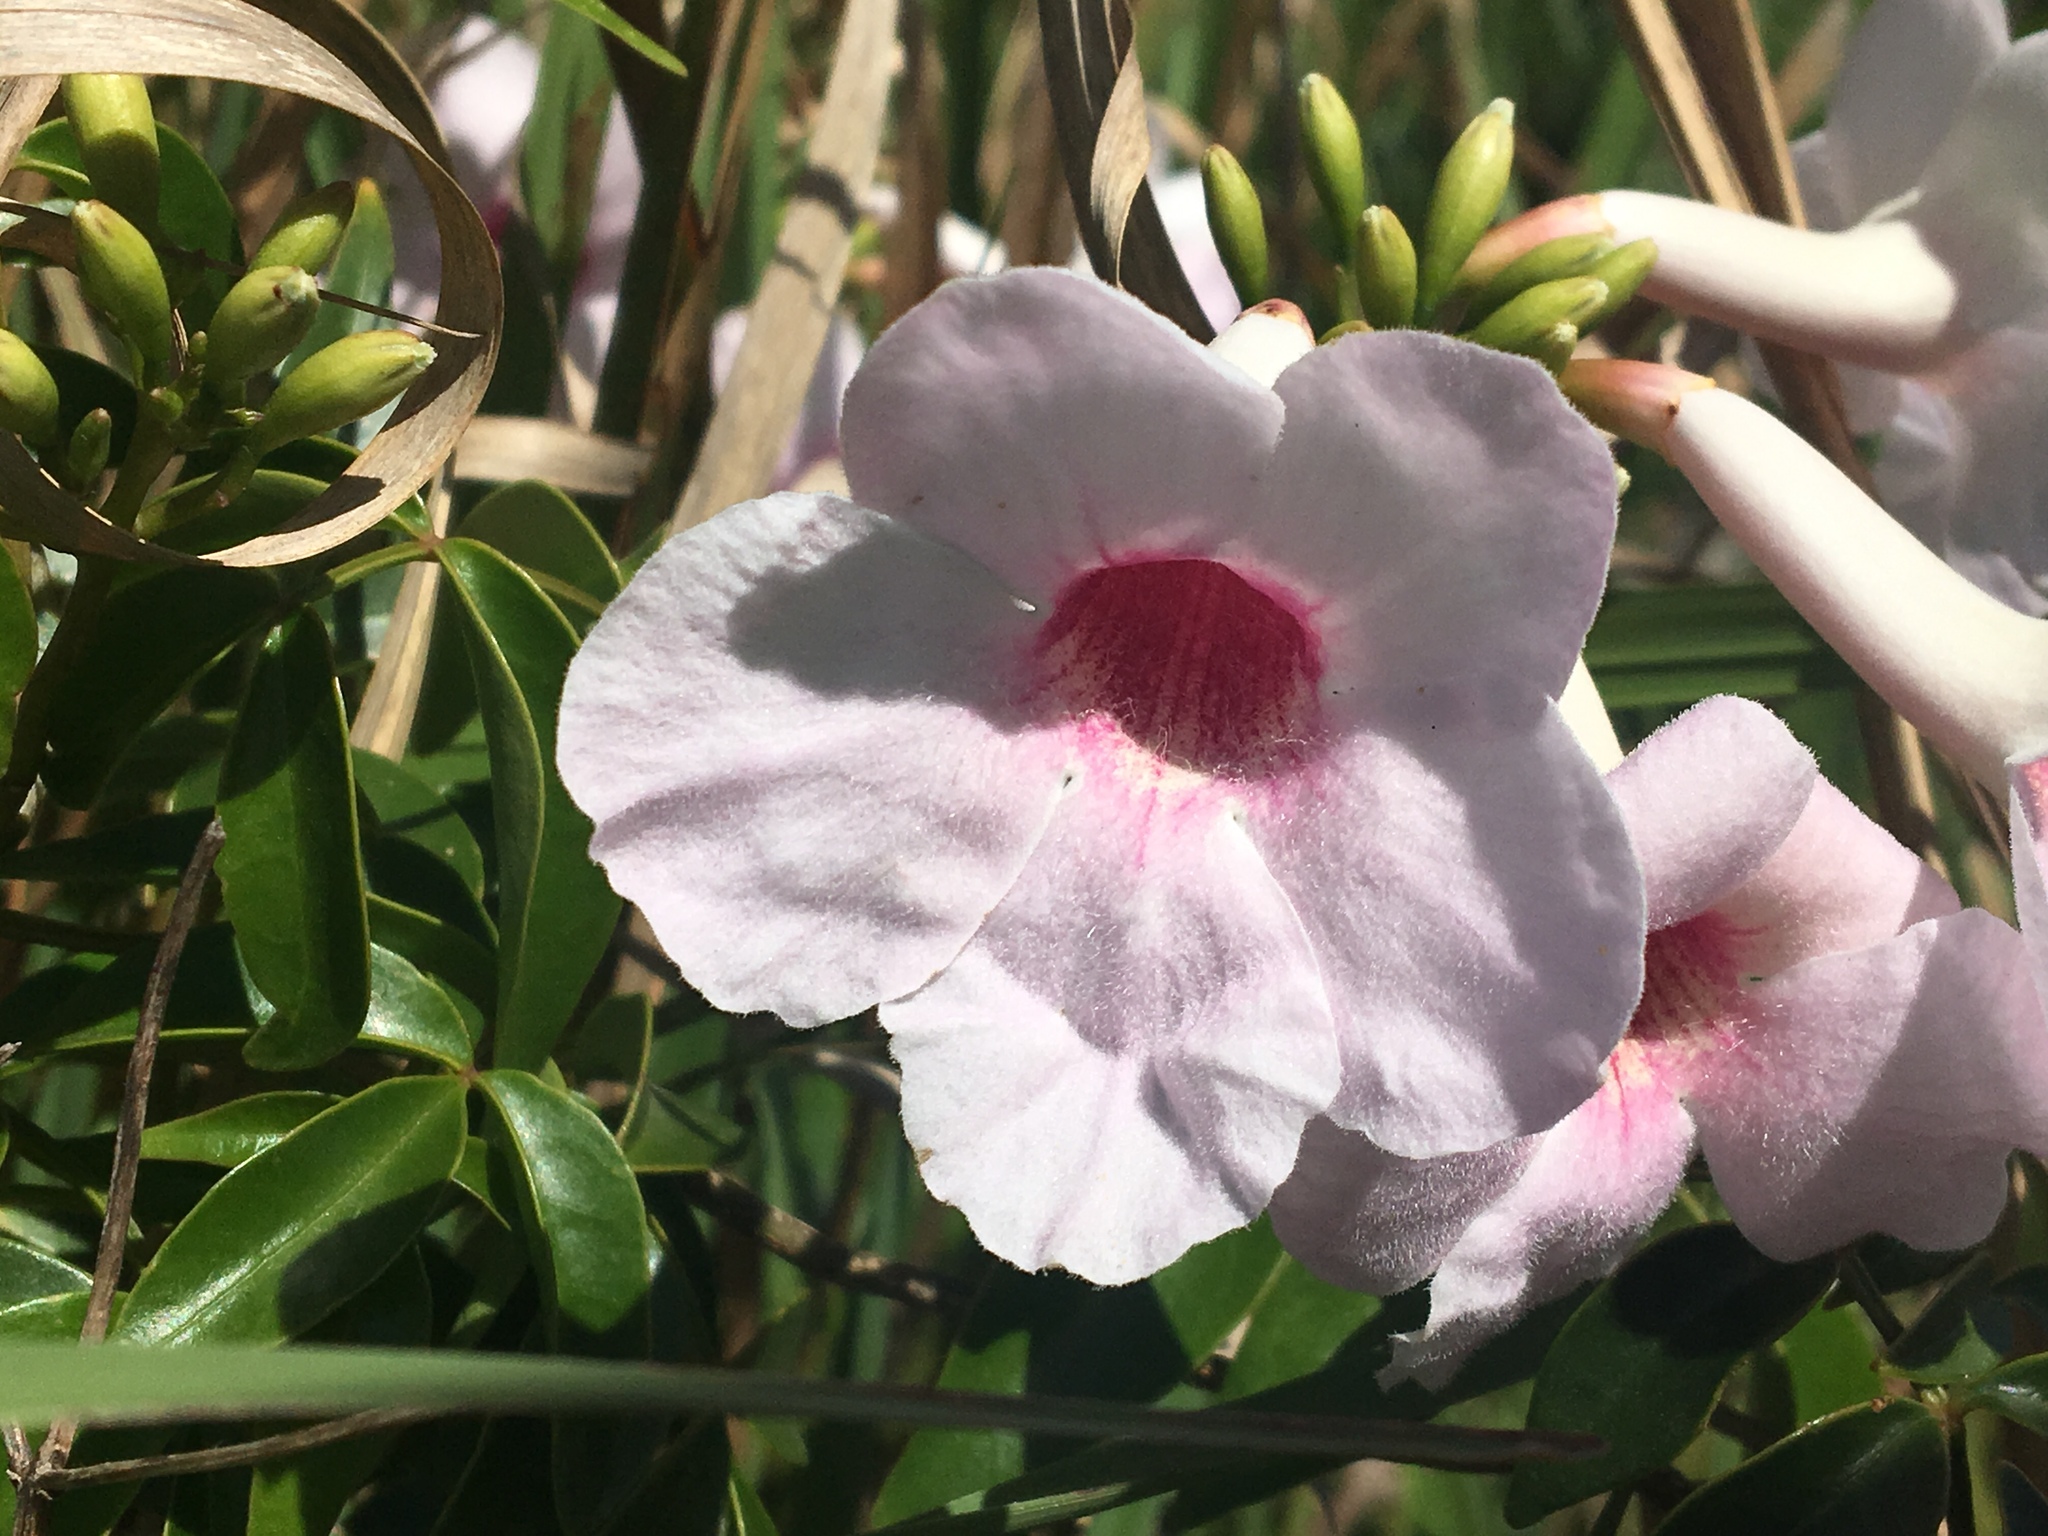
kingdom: Plantae
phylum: Tracheophyta
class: Magnoliopsida
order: Lamiales
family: Bignoniaceae
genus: Pandorea
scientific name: Pandorea jasminoides
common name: Bowerplant
